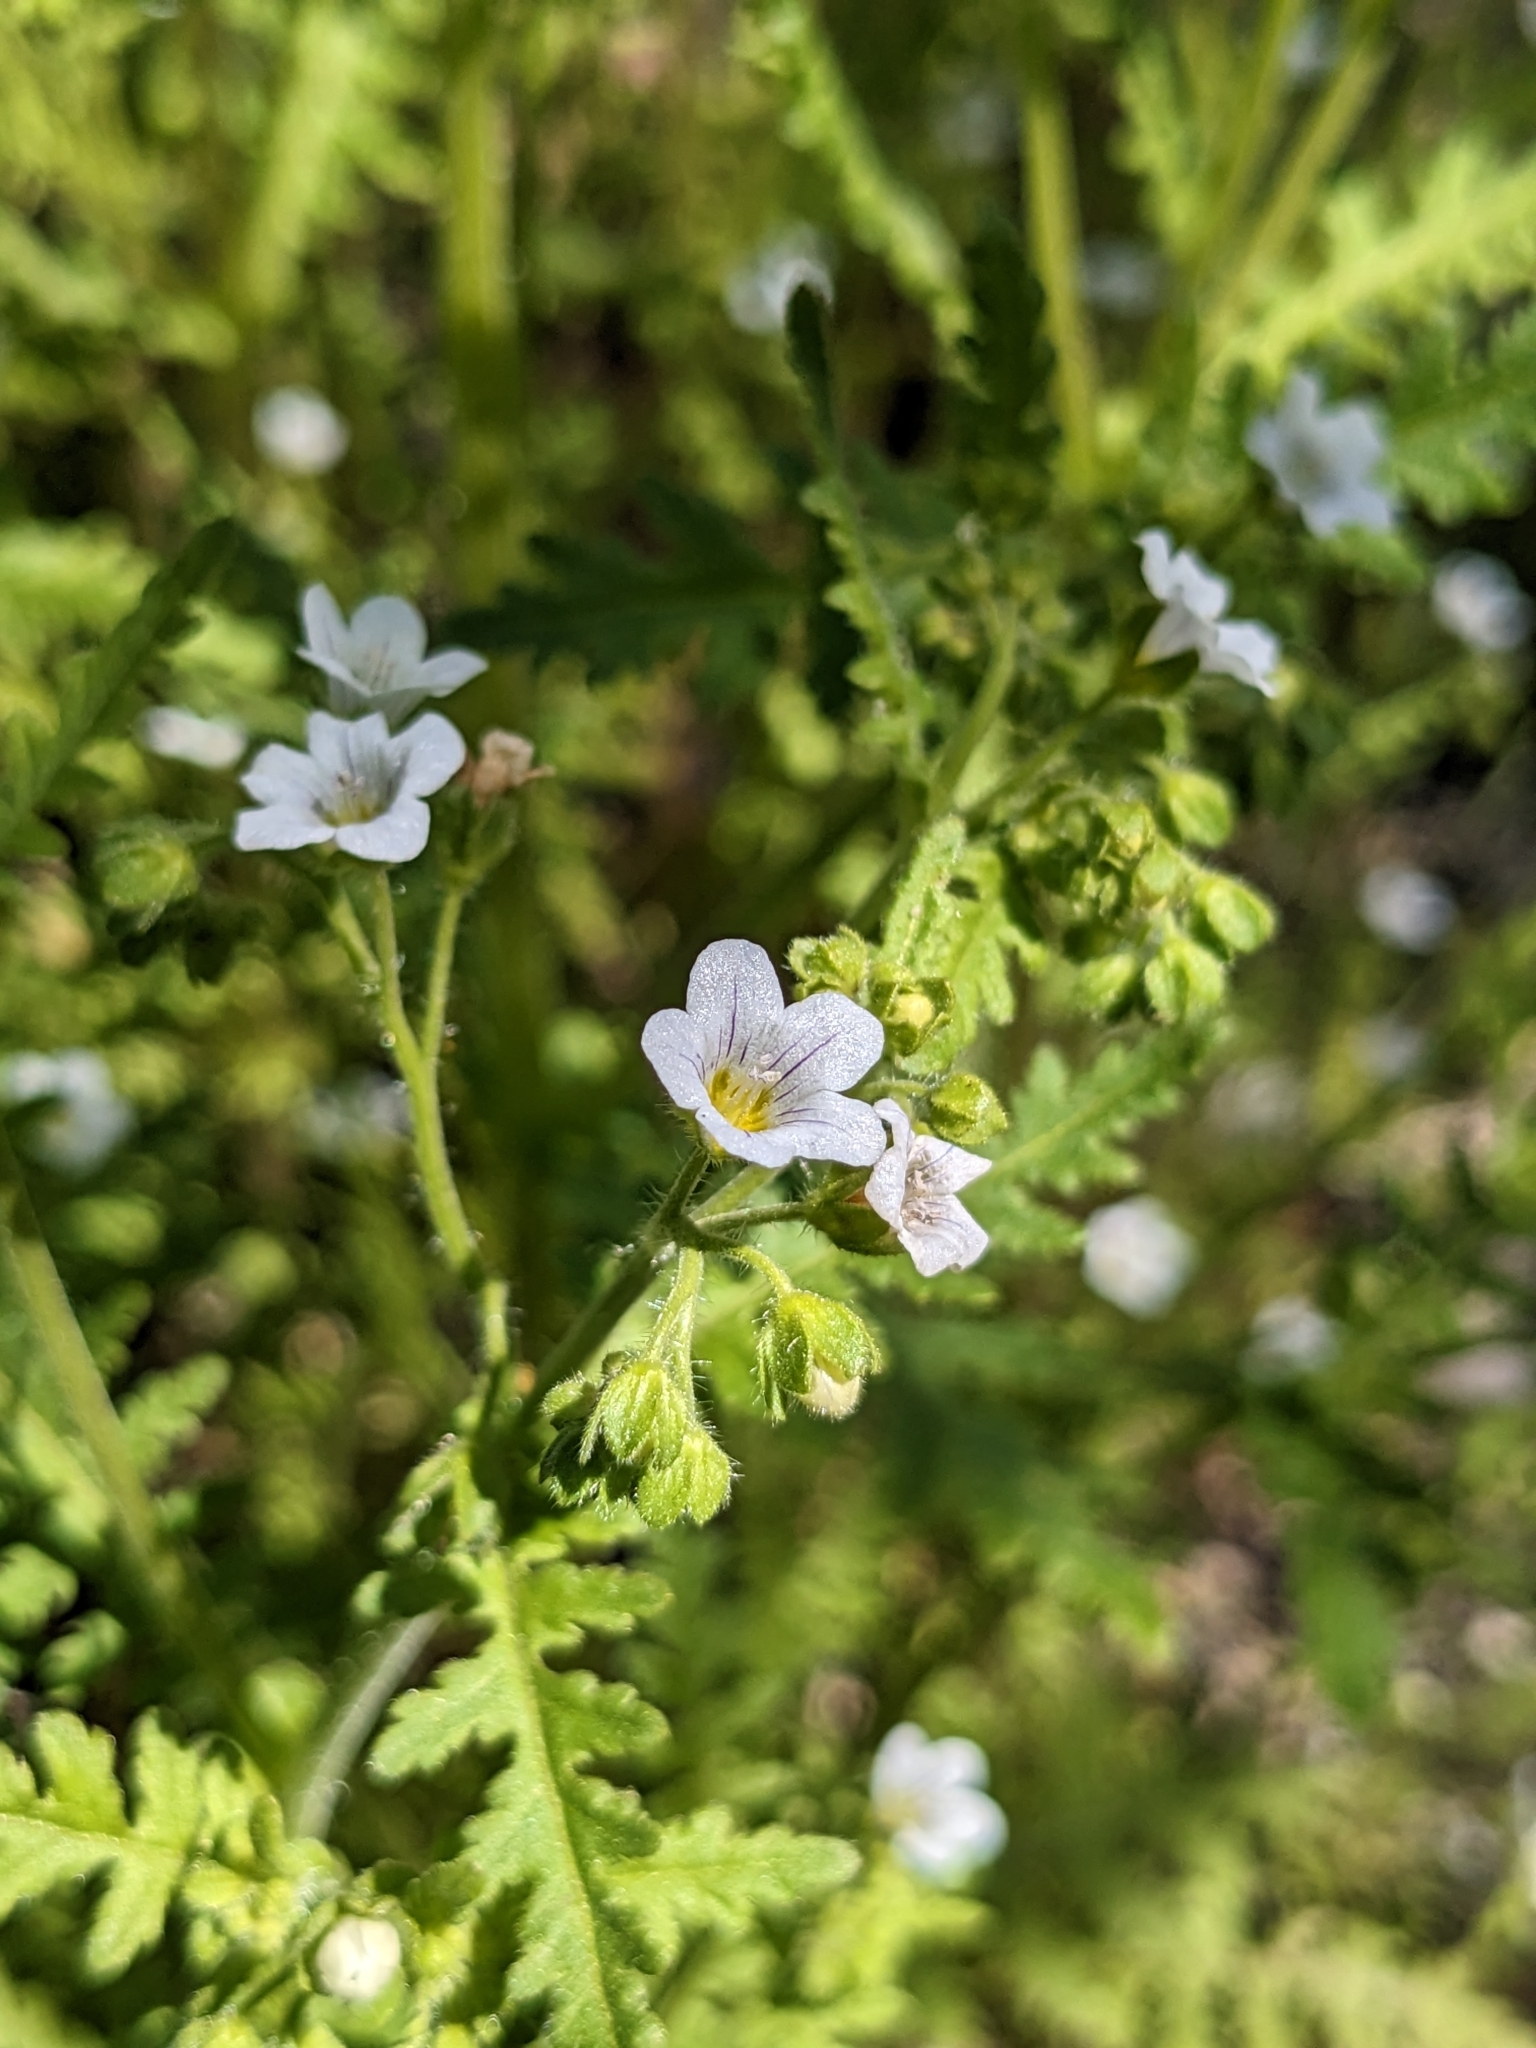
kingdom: Plantae
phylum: Tracheophyta
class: Magnoliopsida
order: Boraginales
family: Hydrophyllaceae
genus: Eucrypta
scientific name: Eucrypta chrysanthemifolia
